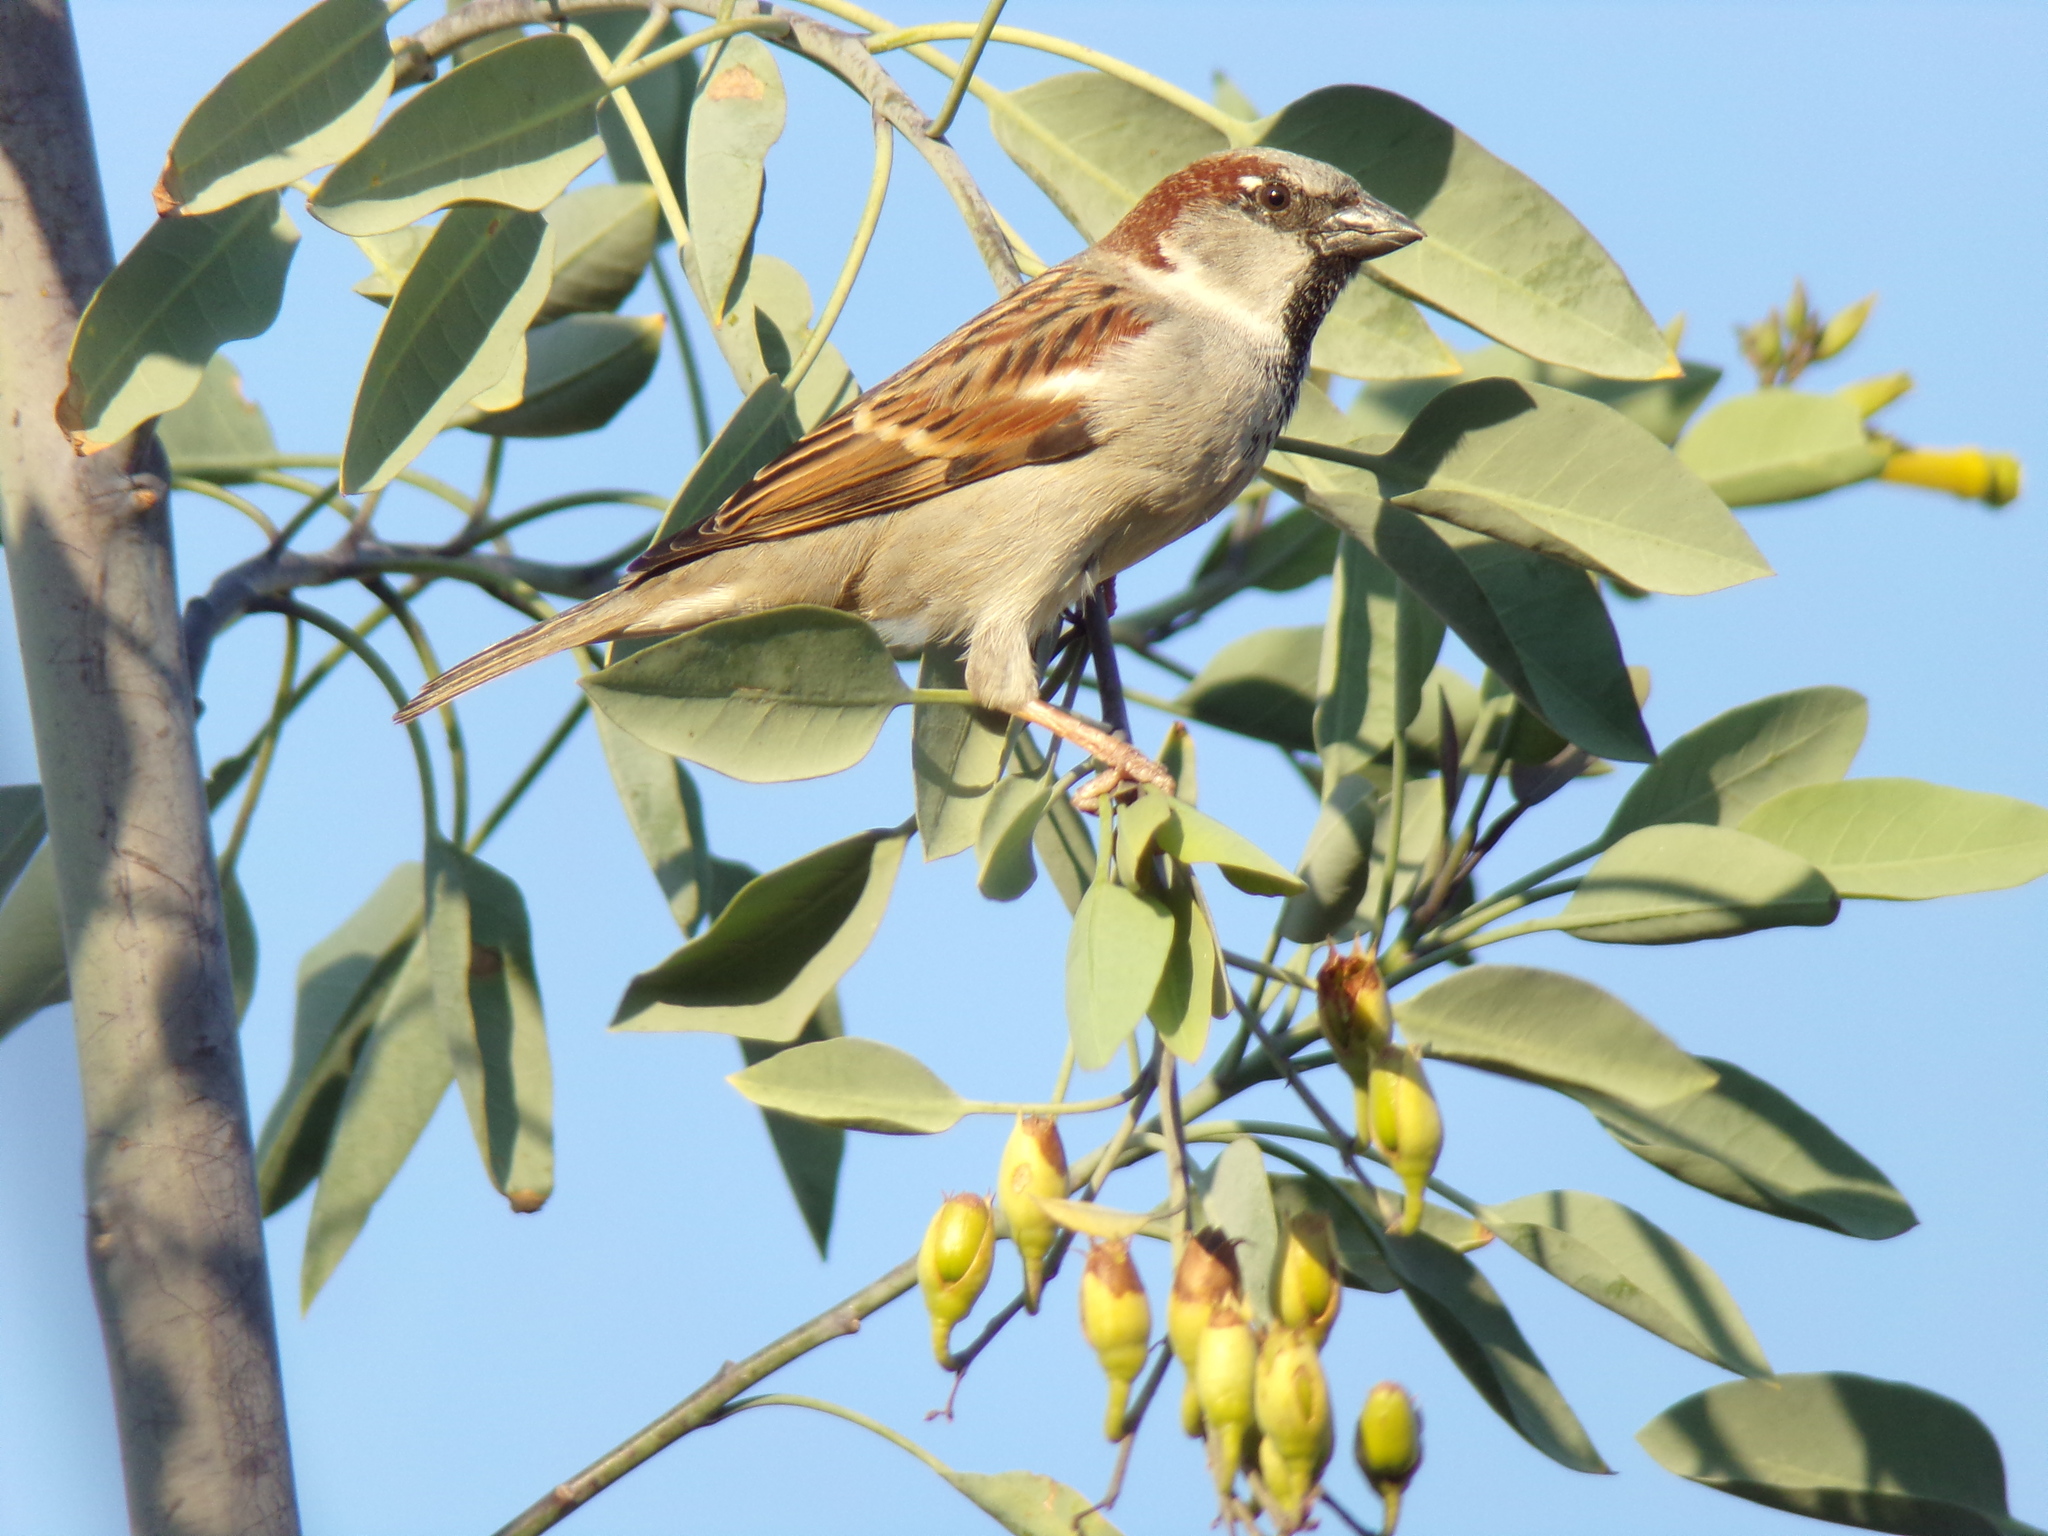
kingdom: Animalia
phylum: Chordata
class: Aves
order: Passeriformes
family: Passeridae
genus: Passer
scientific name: Passer domesticus
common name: House sparrow
